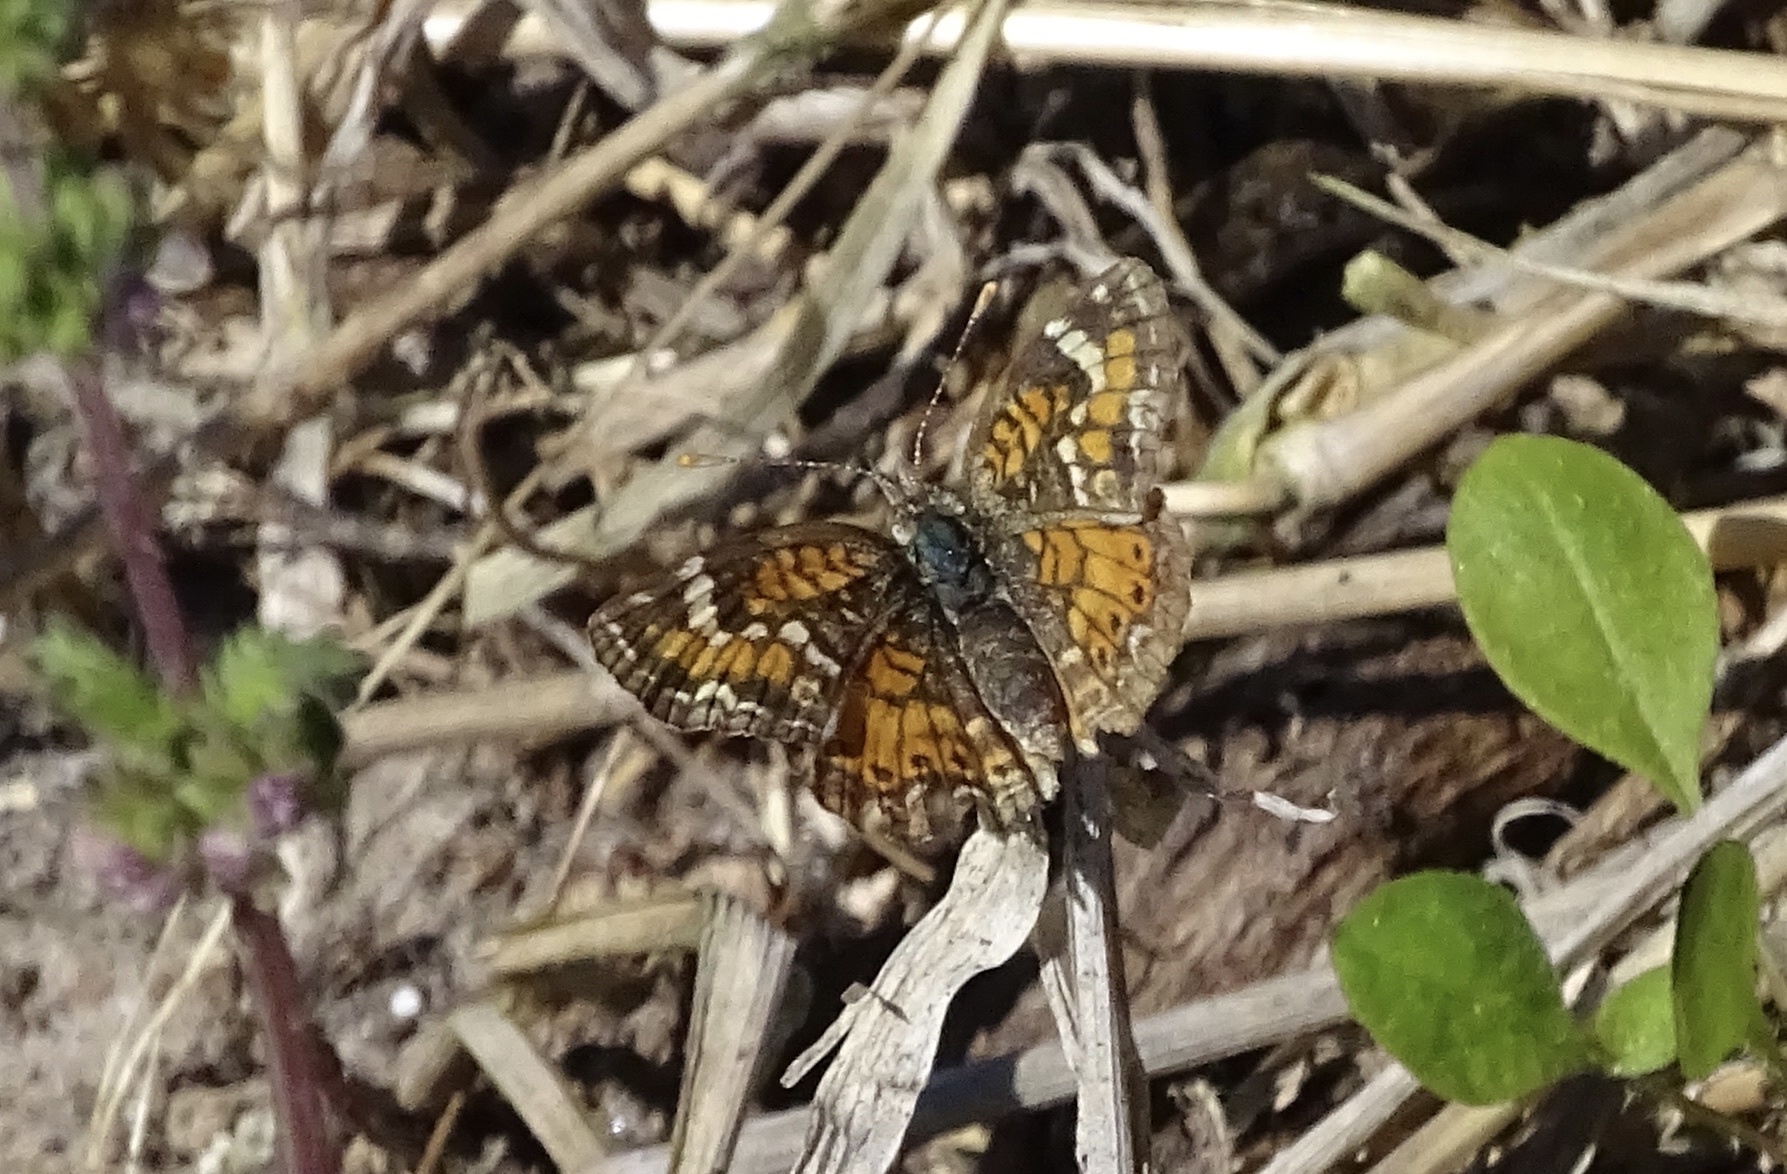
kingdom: Animalia
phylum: Arthropoda
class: Insecta
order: Lepidoptera
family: Nymphalidae
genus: Phyciodes
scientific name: Phyciodes phaon
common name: Phaon crescent
